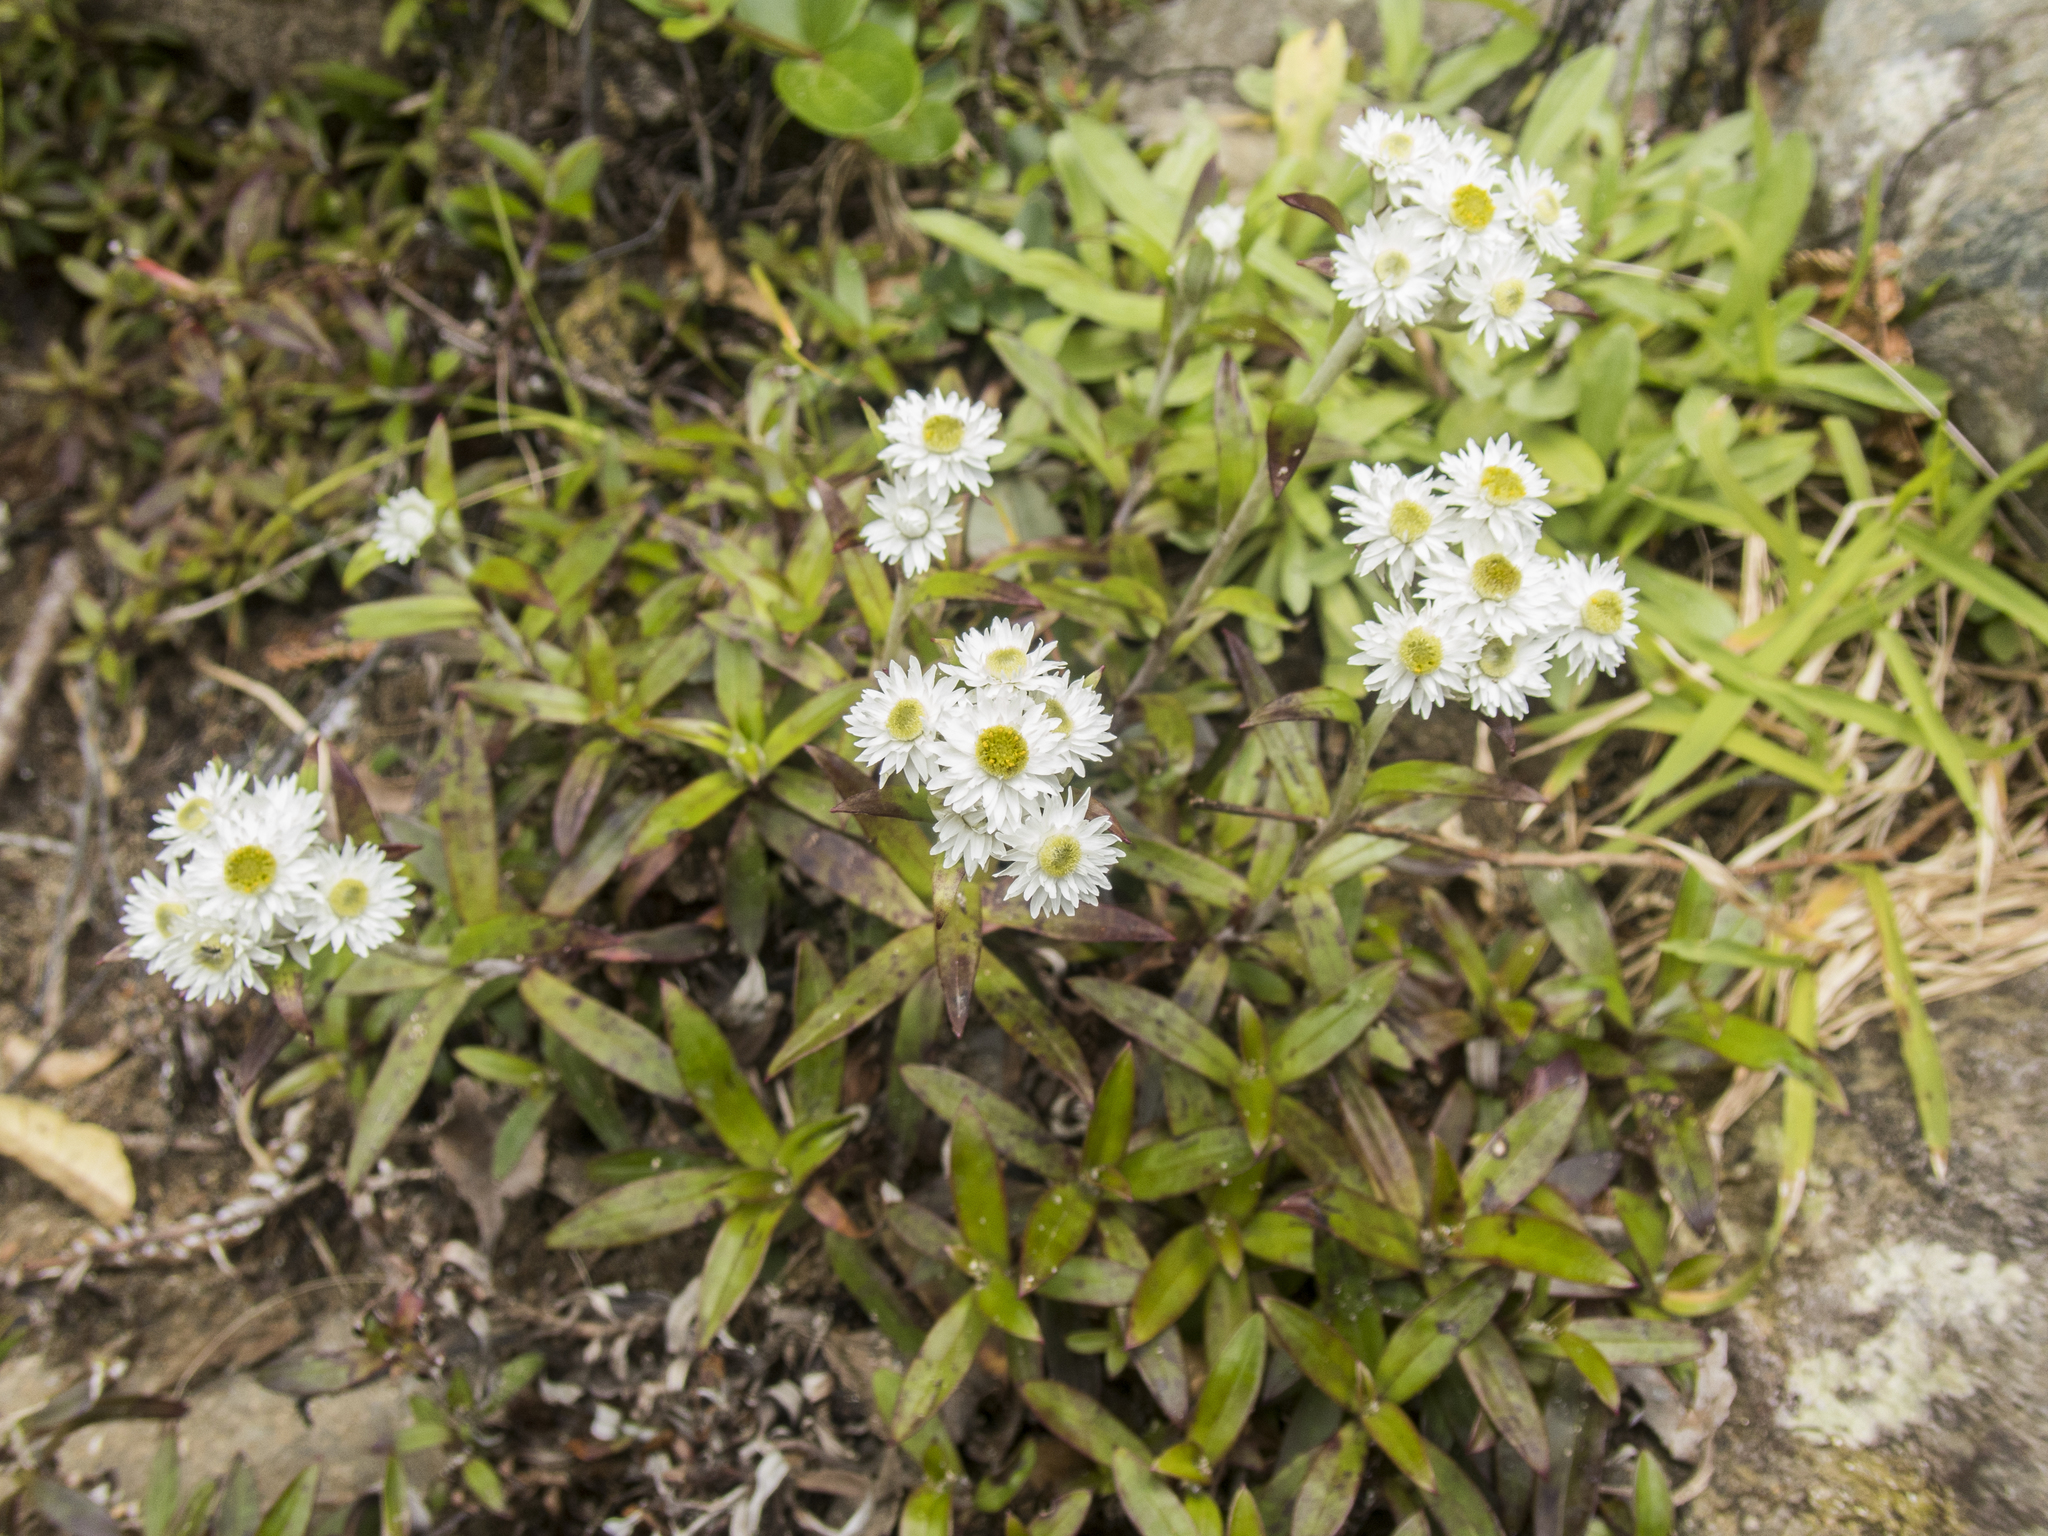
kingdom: Plantae
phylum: Tracheophyta
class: Magnoliopsida
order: Asterales
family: Asteraceae
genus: Anaphalioides
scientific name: Anaphalioides trinervis
